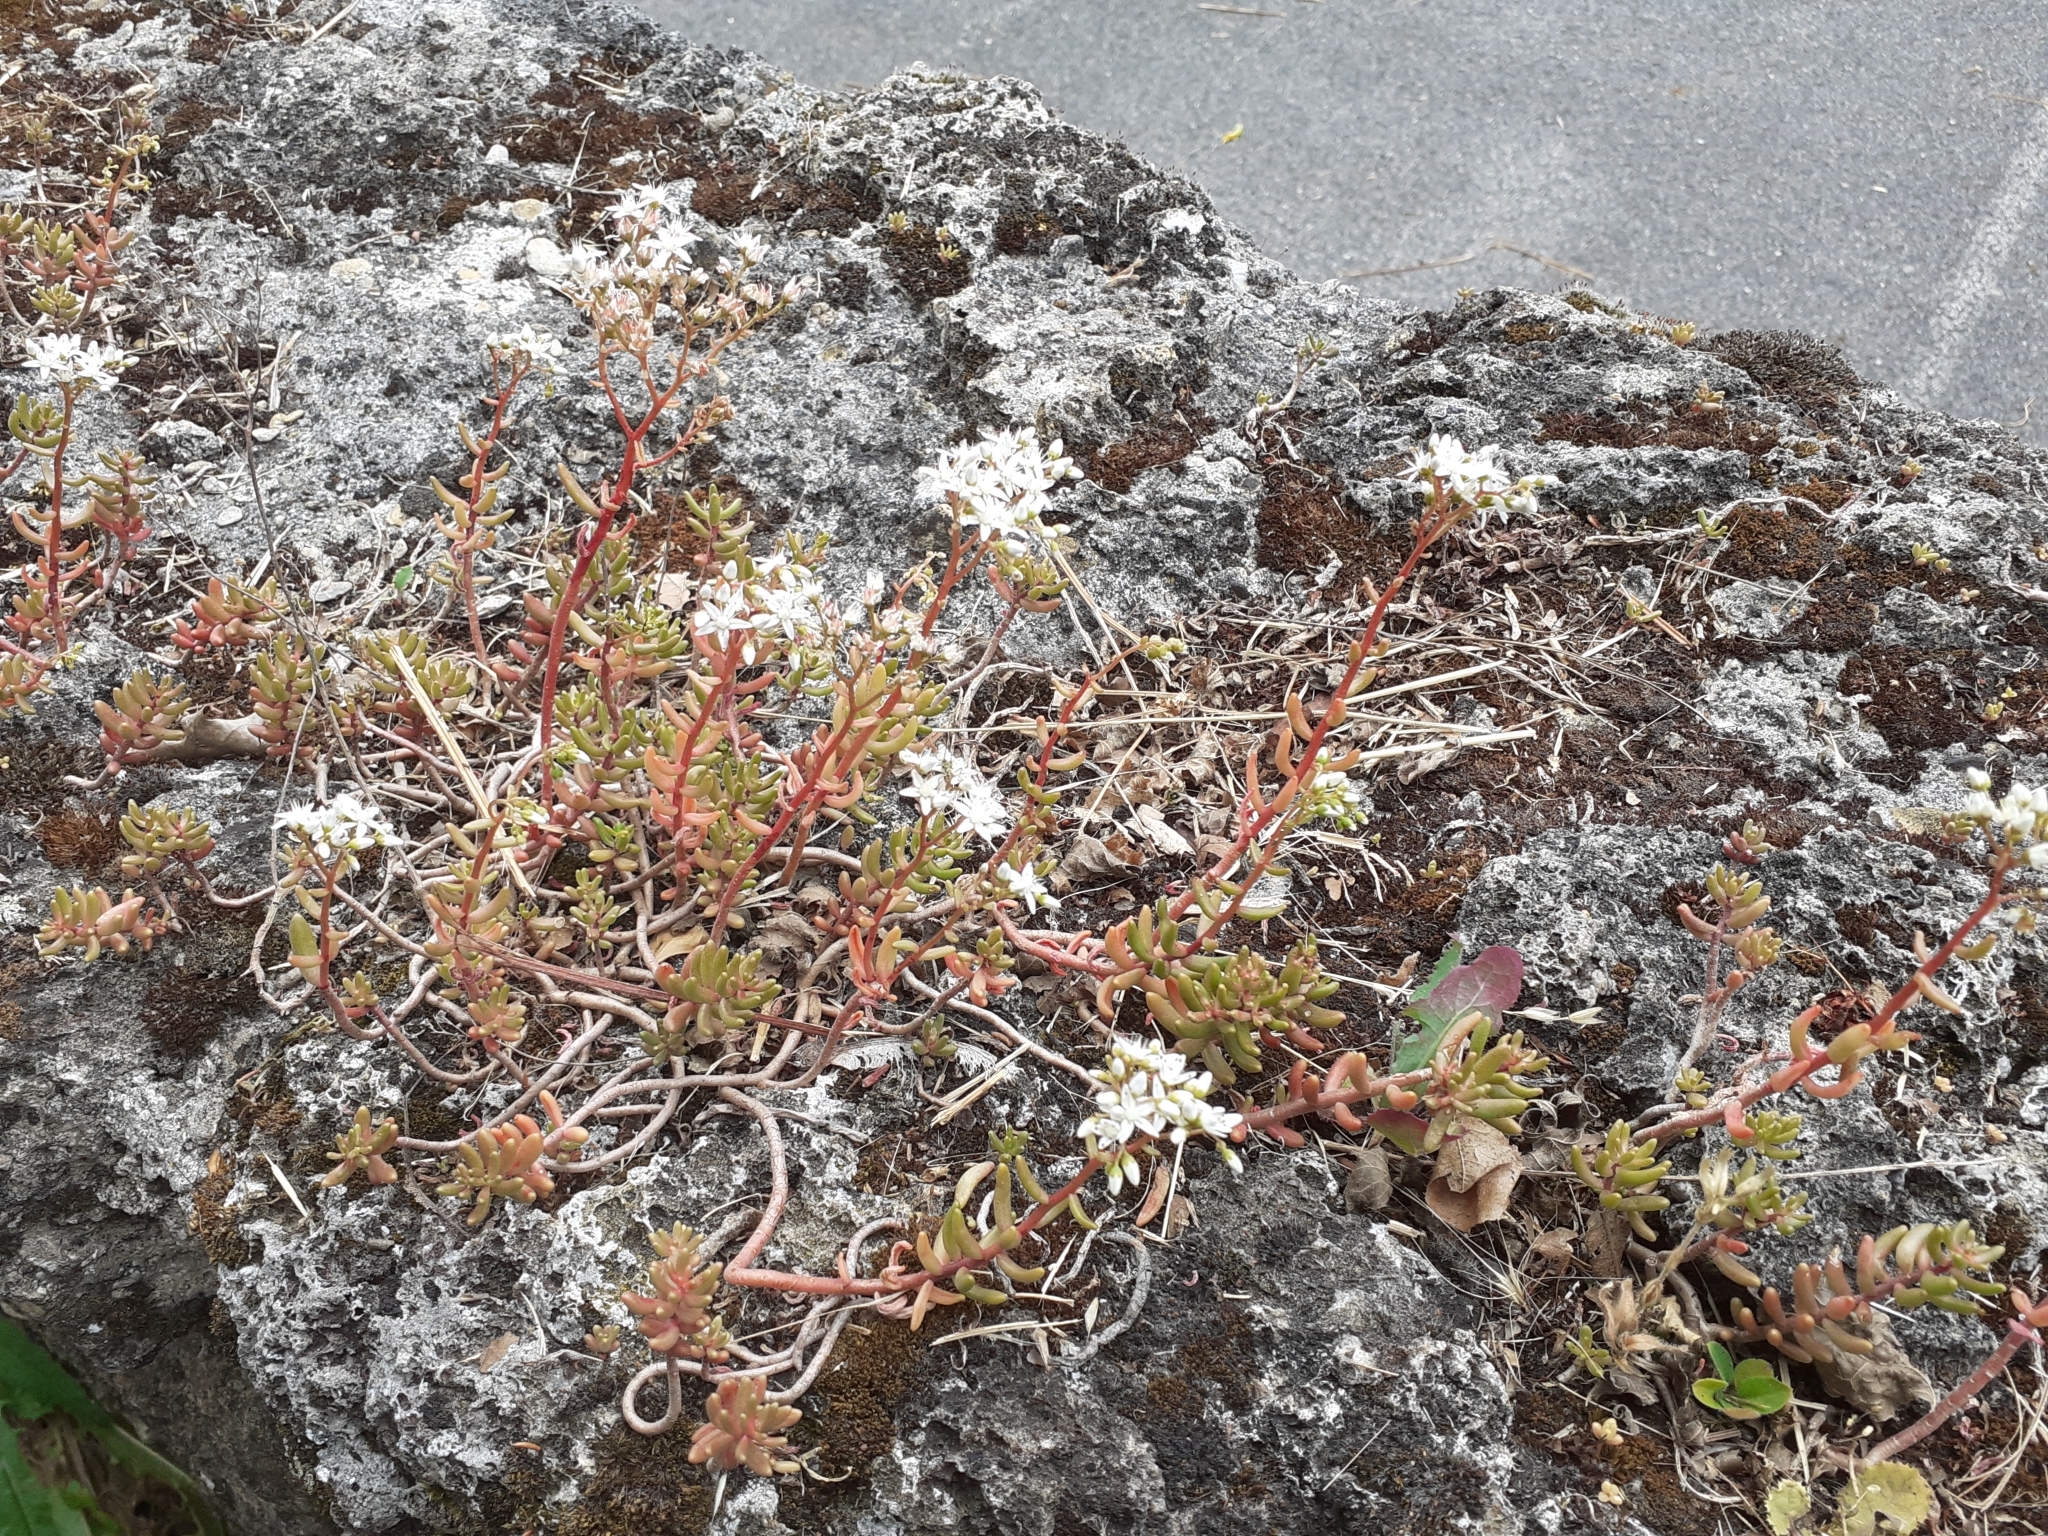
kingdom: Plantae
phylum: Tracheophyta
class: Magnoliopsida
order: Saxifragales
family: Crassulaceae
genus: Sedum
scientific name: Sedum album
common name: White stonecrop
